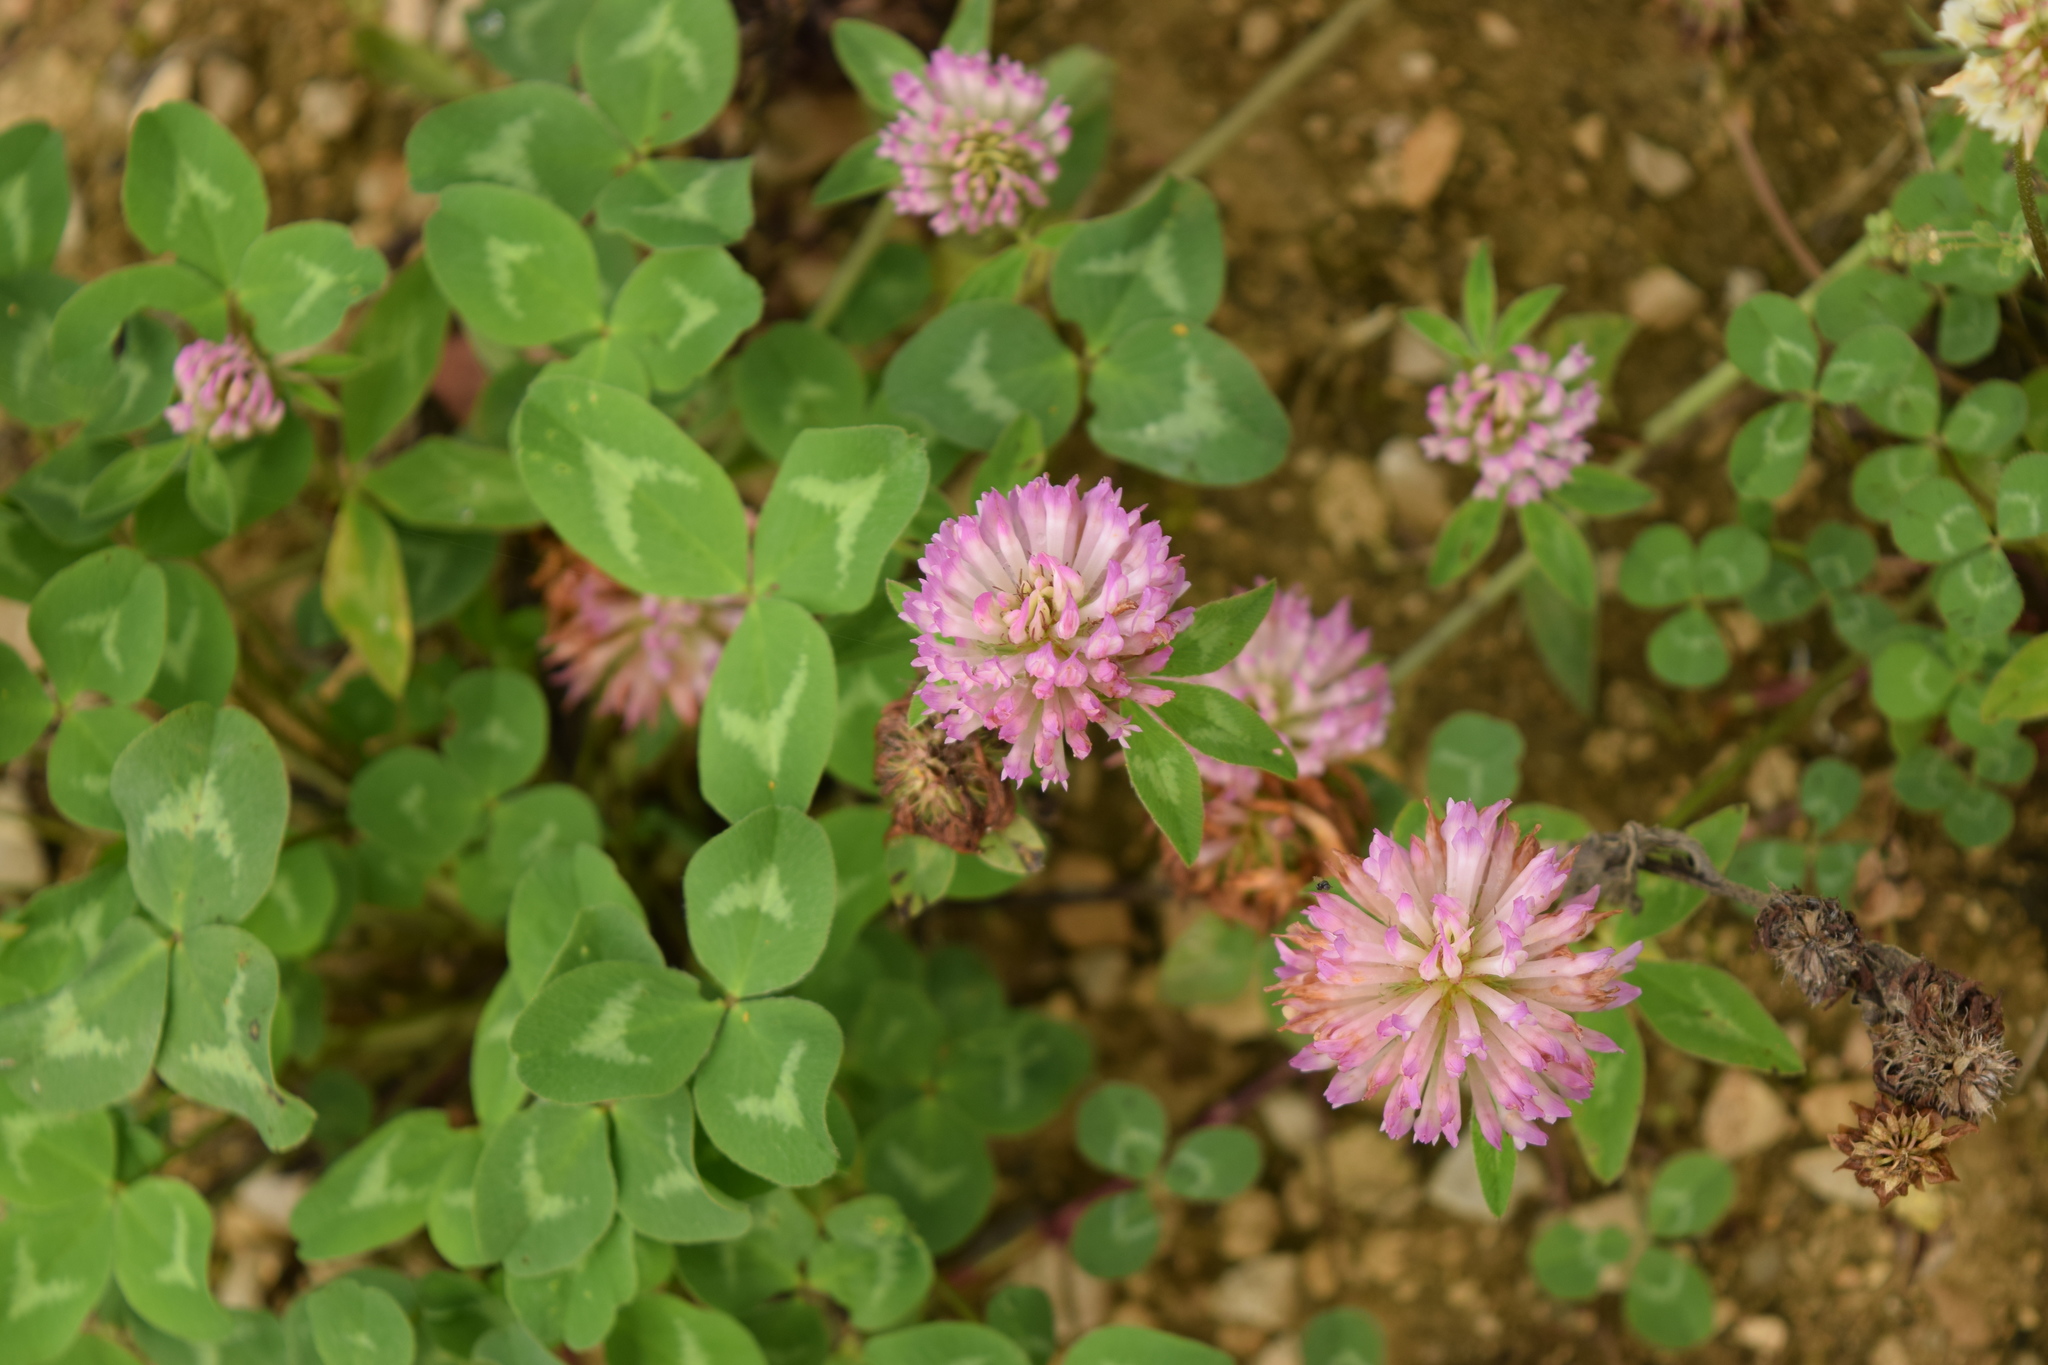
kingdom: Plantae
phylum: Tracheophyta
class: Magnoliopsida
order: Fabales
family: Fabaceae
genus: Trifolium
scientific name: Trifolium pratense
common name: Red clover
